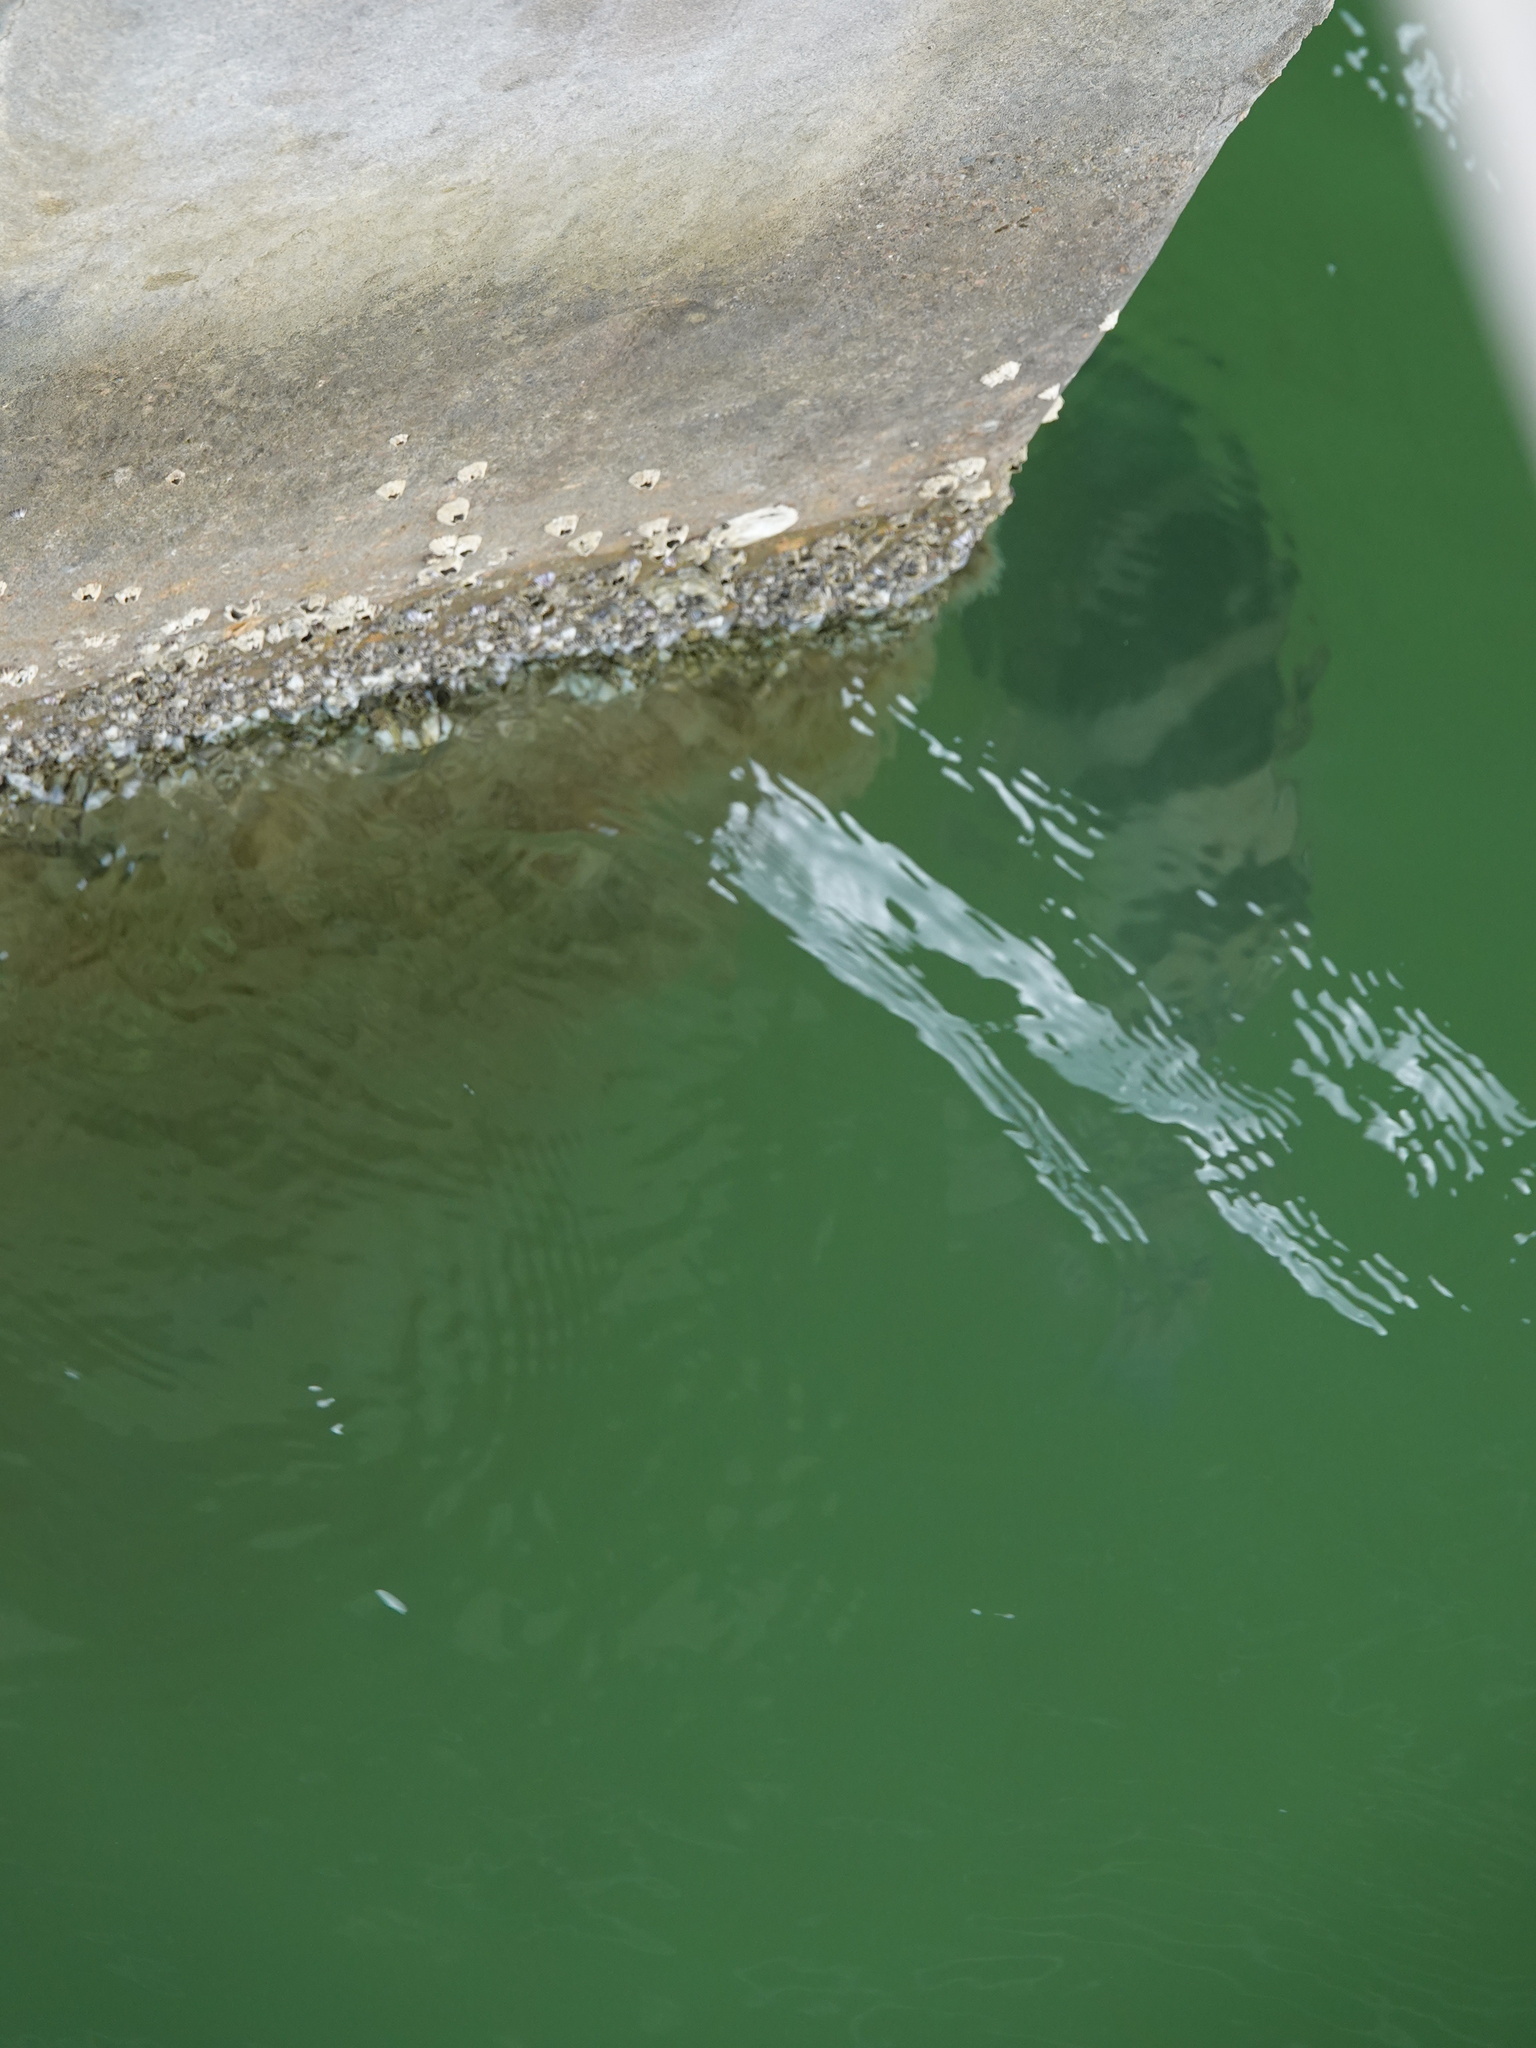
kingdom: Animalia
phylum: Chordata
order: Perciformes
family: Sparidae
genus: Archosargus
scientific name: Archosargus probatocephalus
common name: Sheepshead
